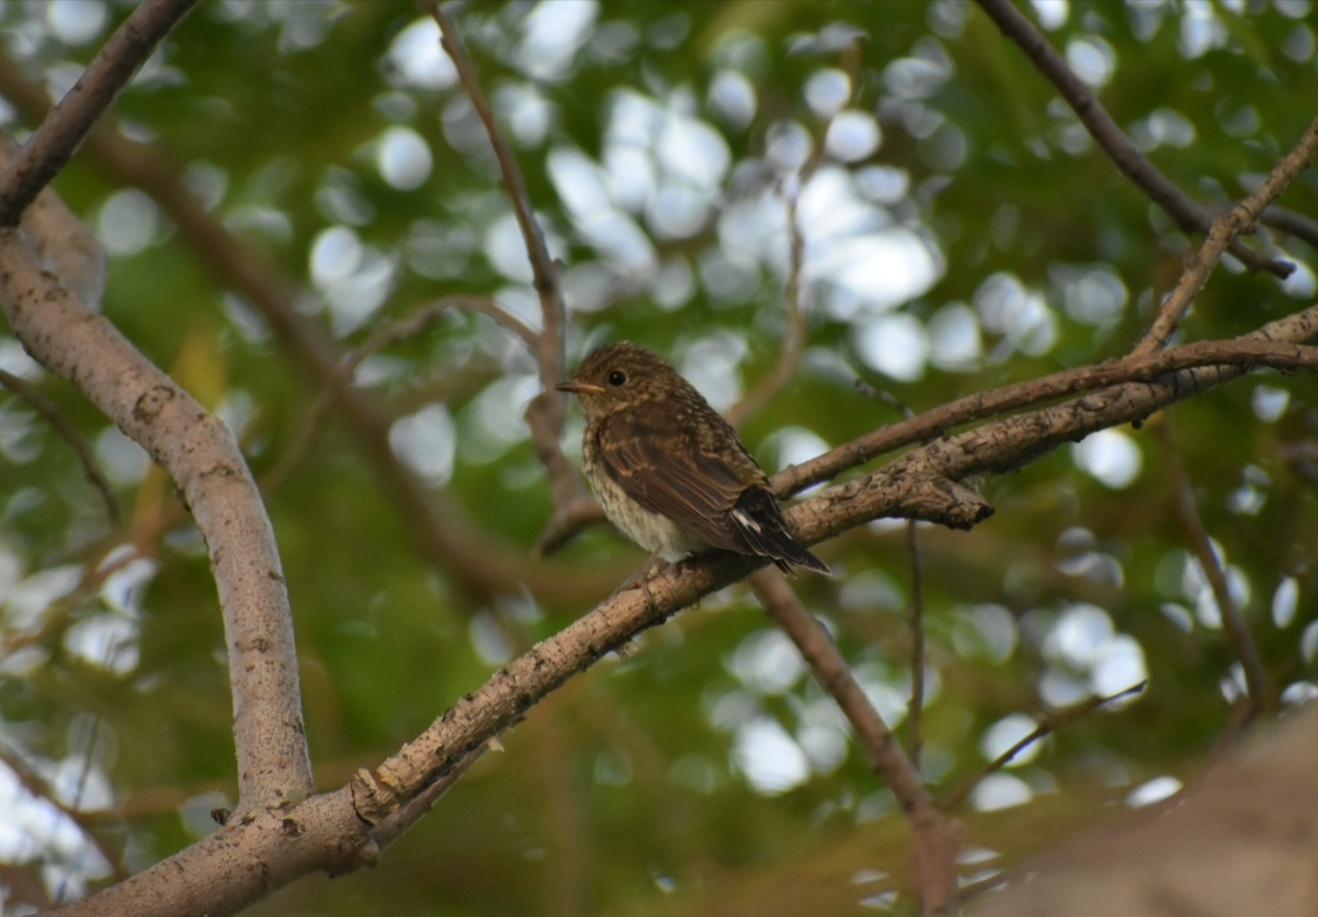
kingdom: Animalia
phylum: Chordata
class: Aves
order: Passeriformes
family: Muscicapidae
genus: Ficedula
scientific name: Ficedula albicilla
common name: Taiga flycatcher
